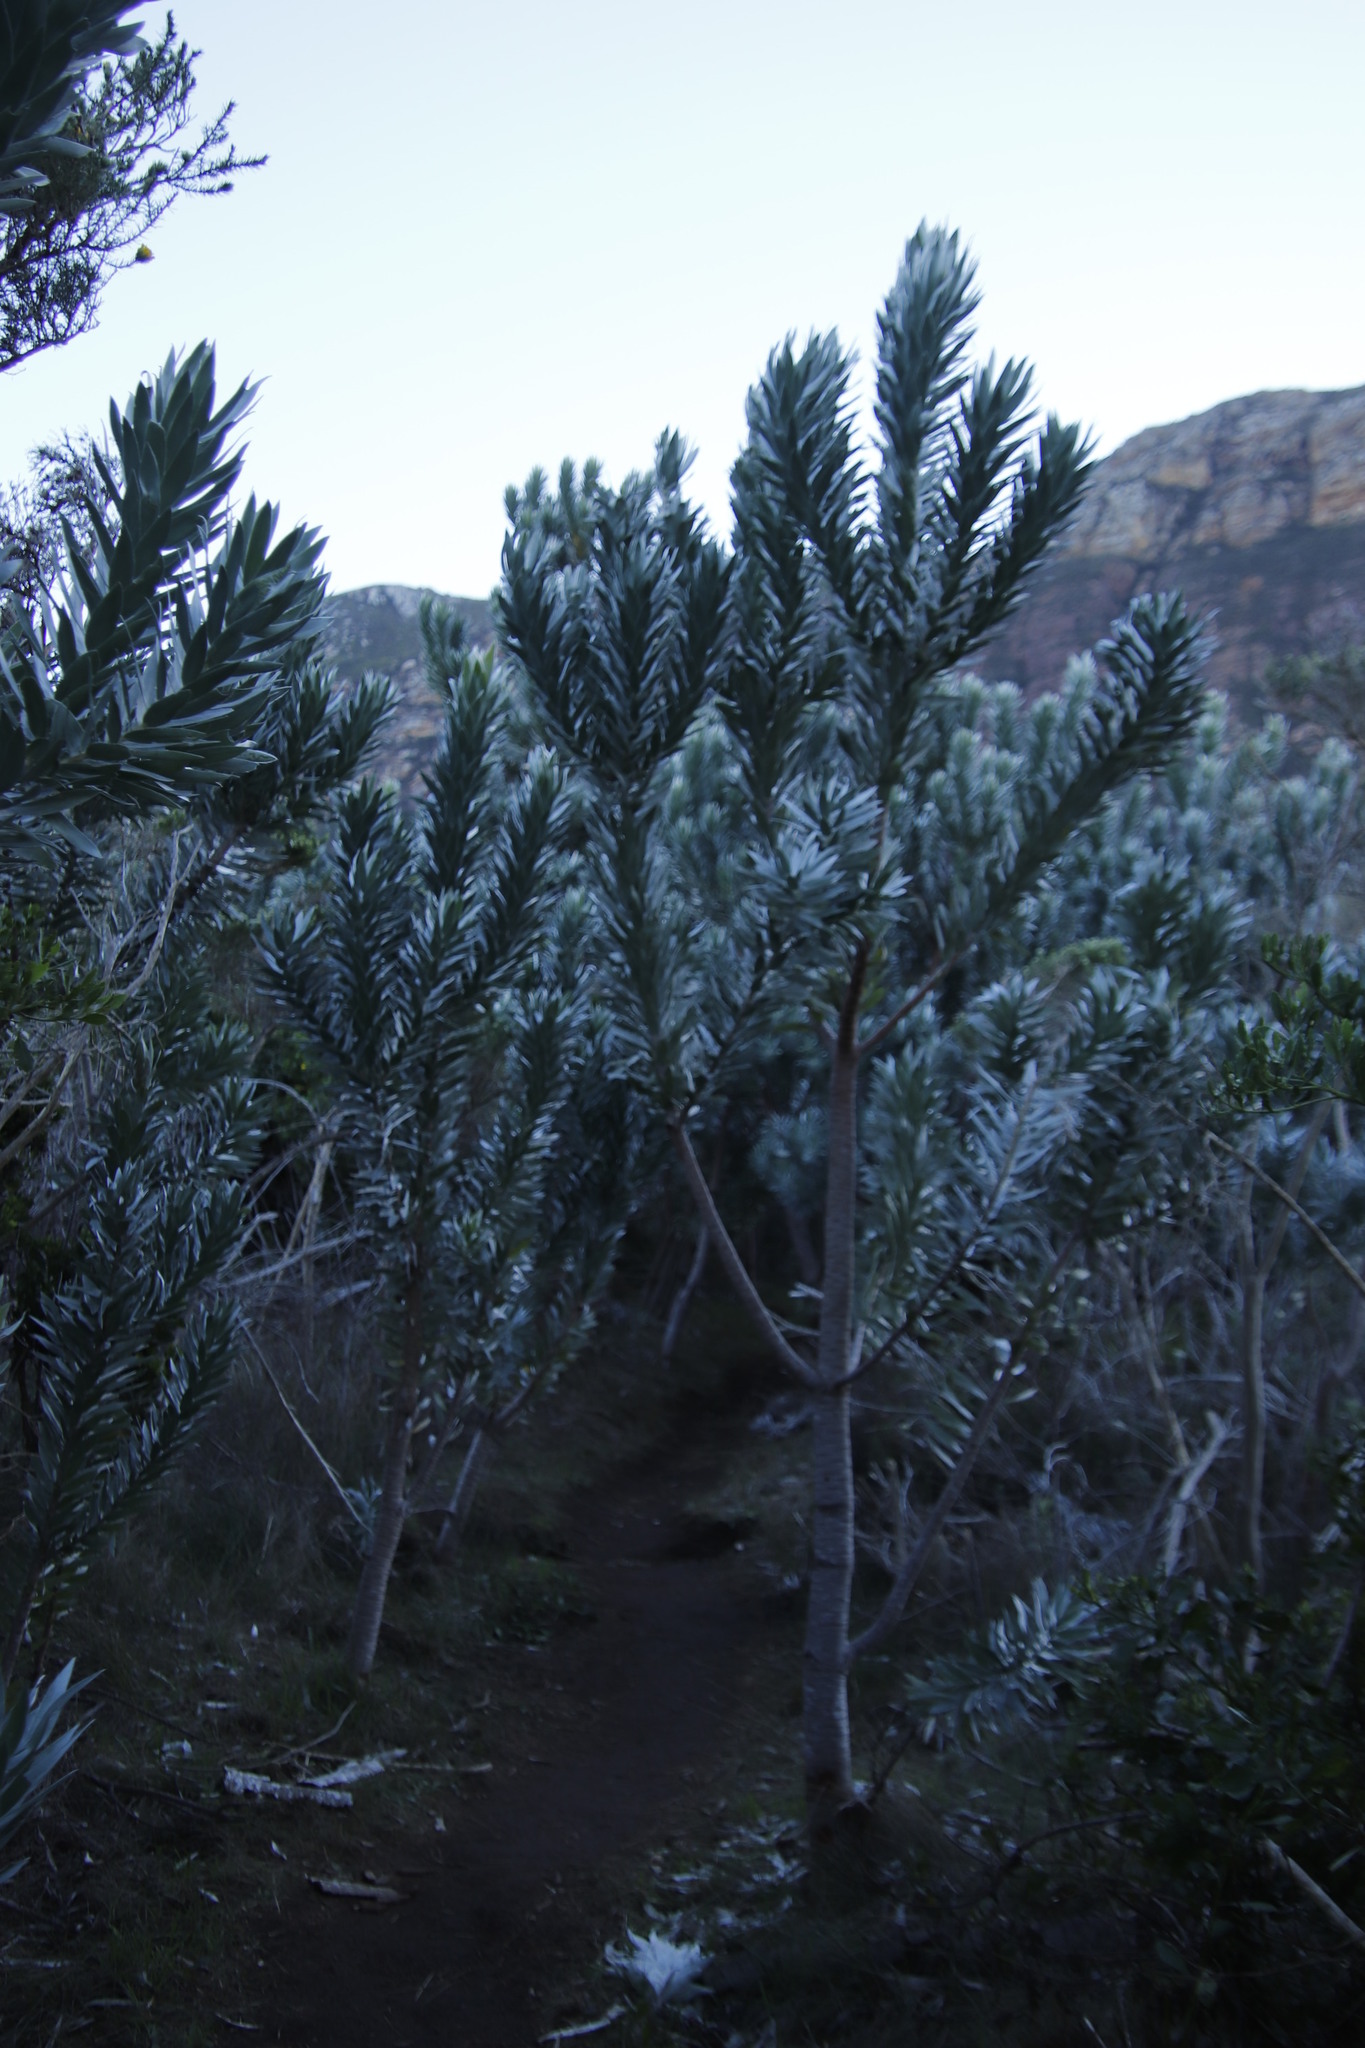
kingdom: Plantae
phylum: Tracheophyta
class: Magnoliopsida
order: Proteales
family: Proteaceae
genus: Leucadendron
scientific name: Leucadendron argenteum
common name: Cape silver tree
